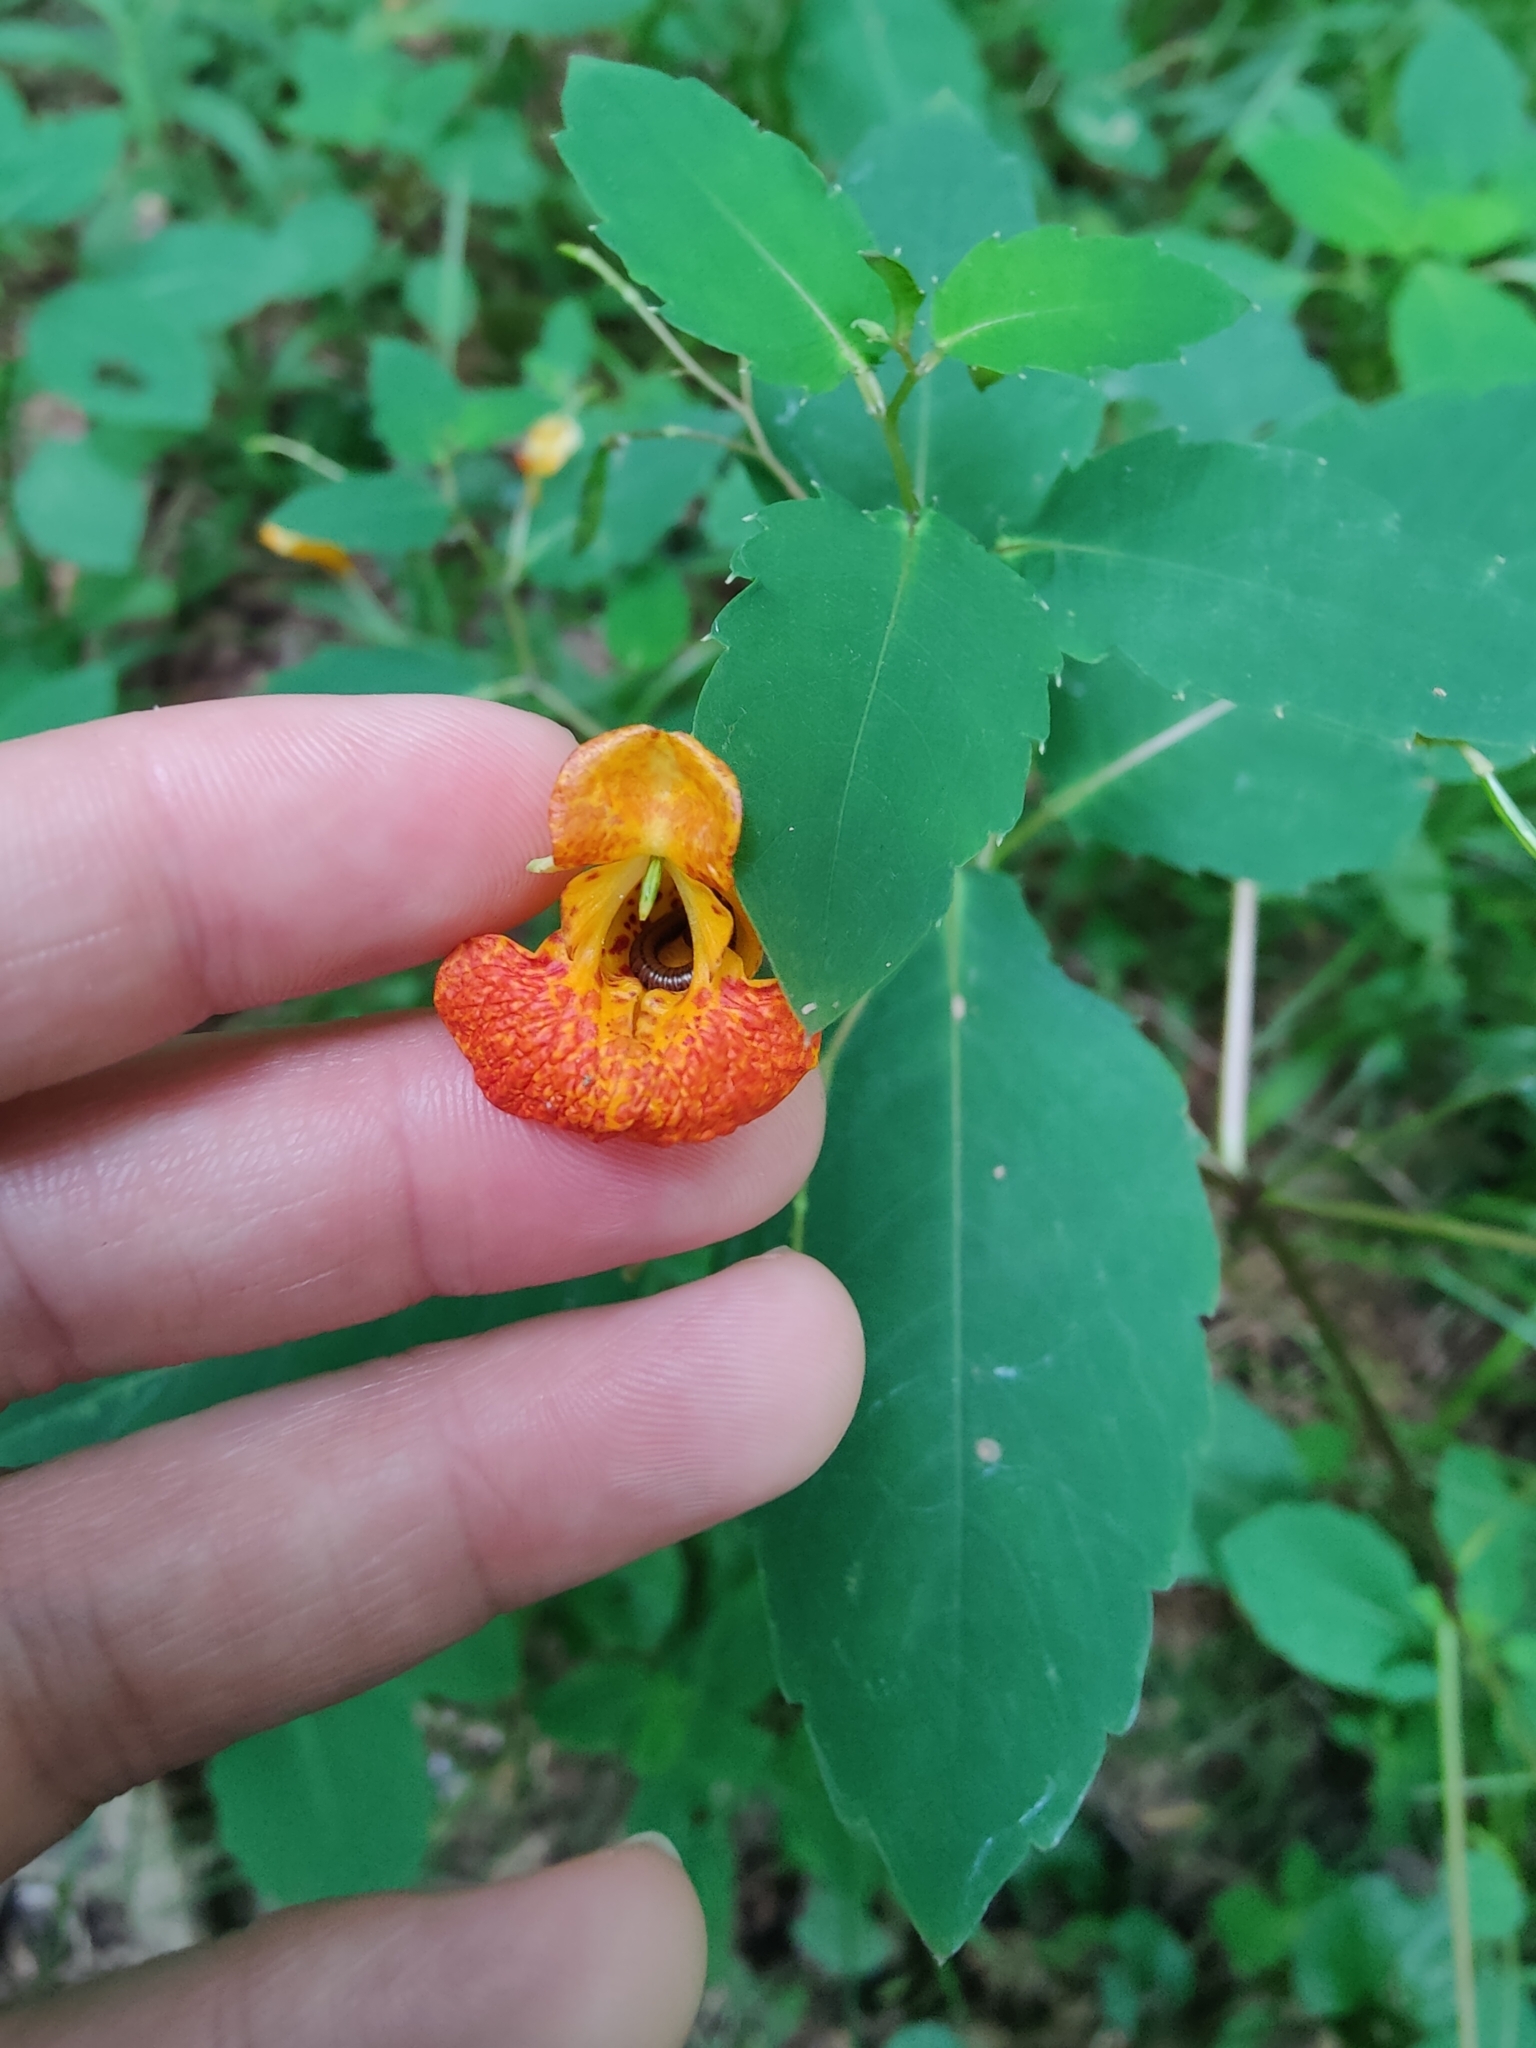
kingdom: Plantae
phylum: Tracheophyta
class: Magnoliopsida
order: Ericales
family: Balsaminaceae
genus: Impatiens
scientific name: Impatiens capensis
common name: Orange balsam
